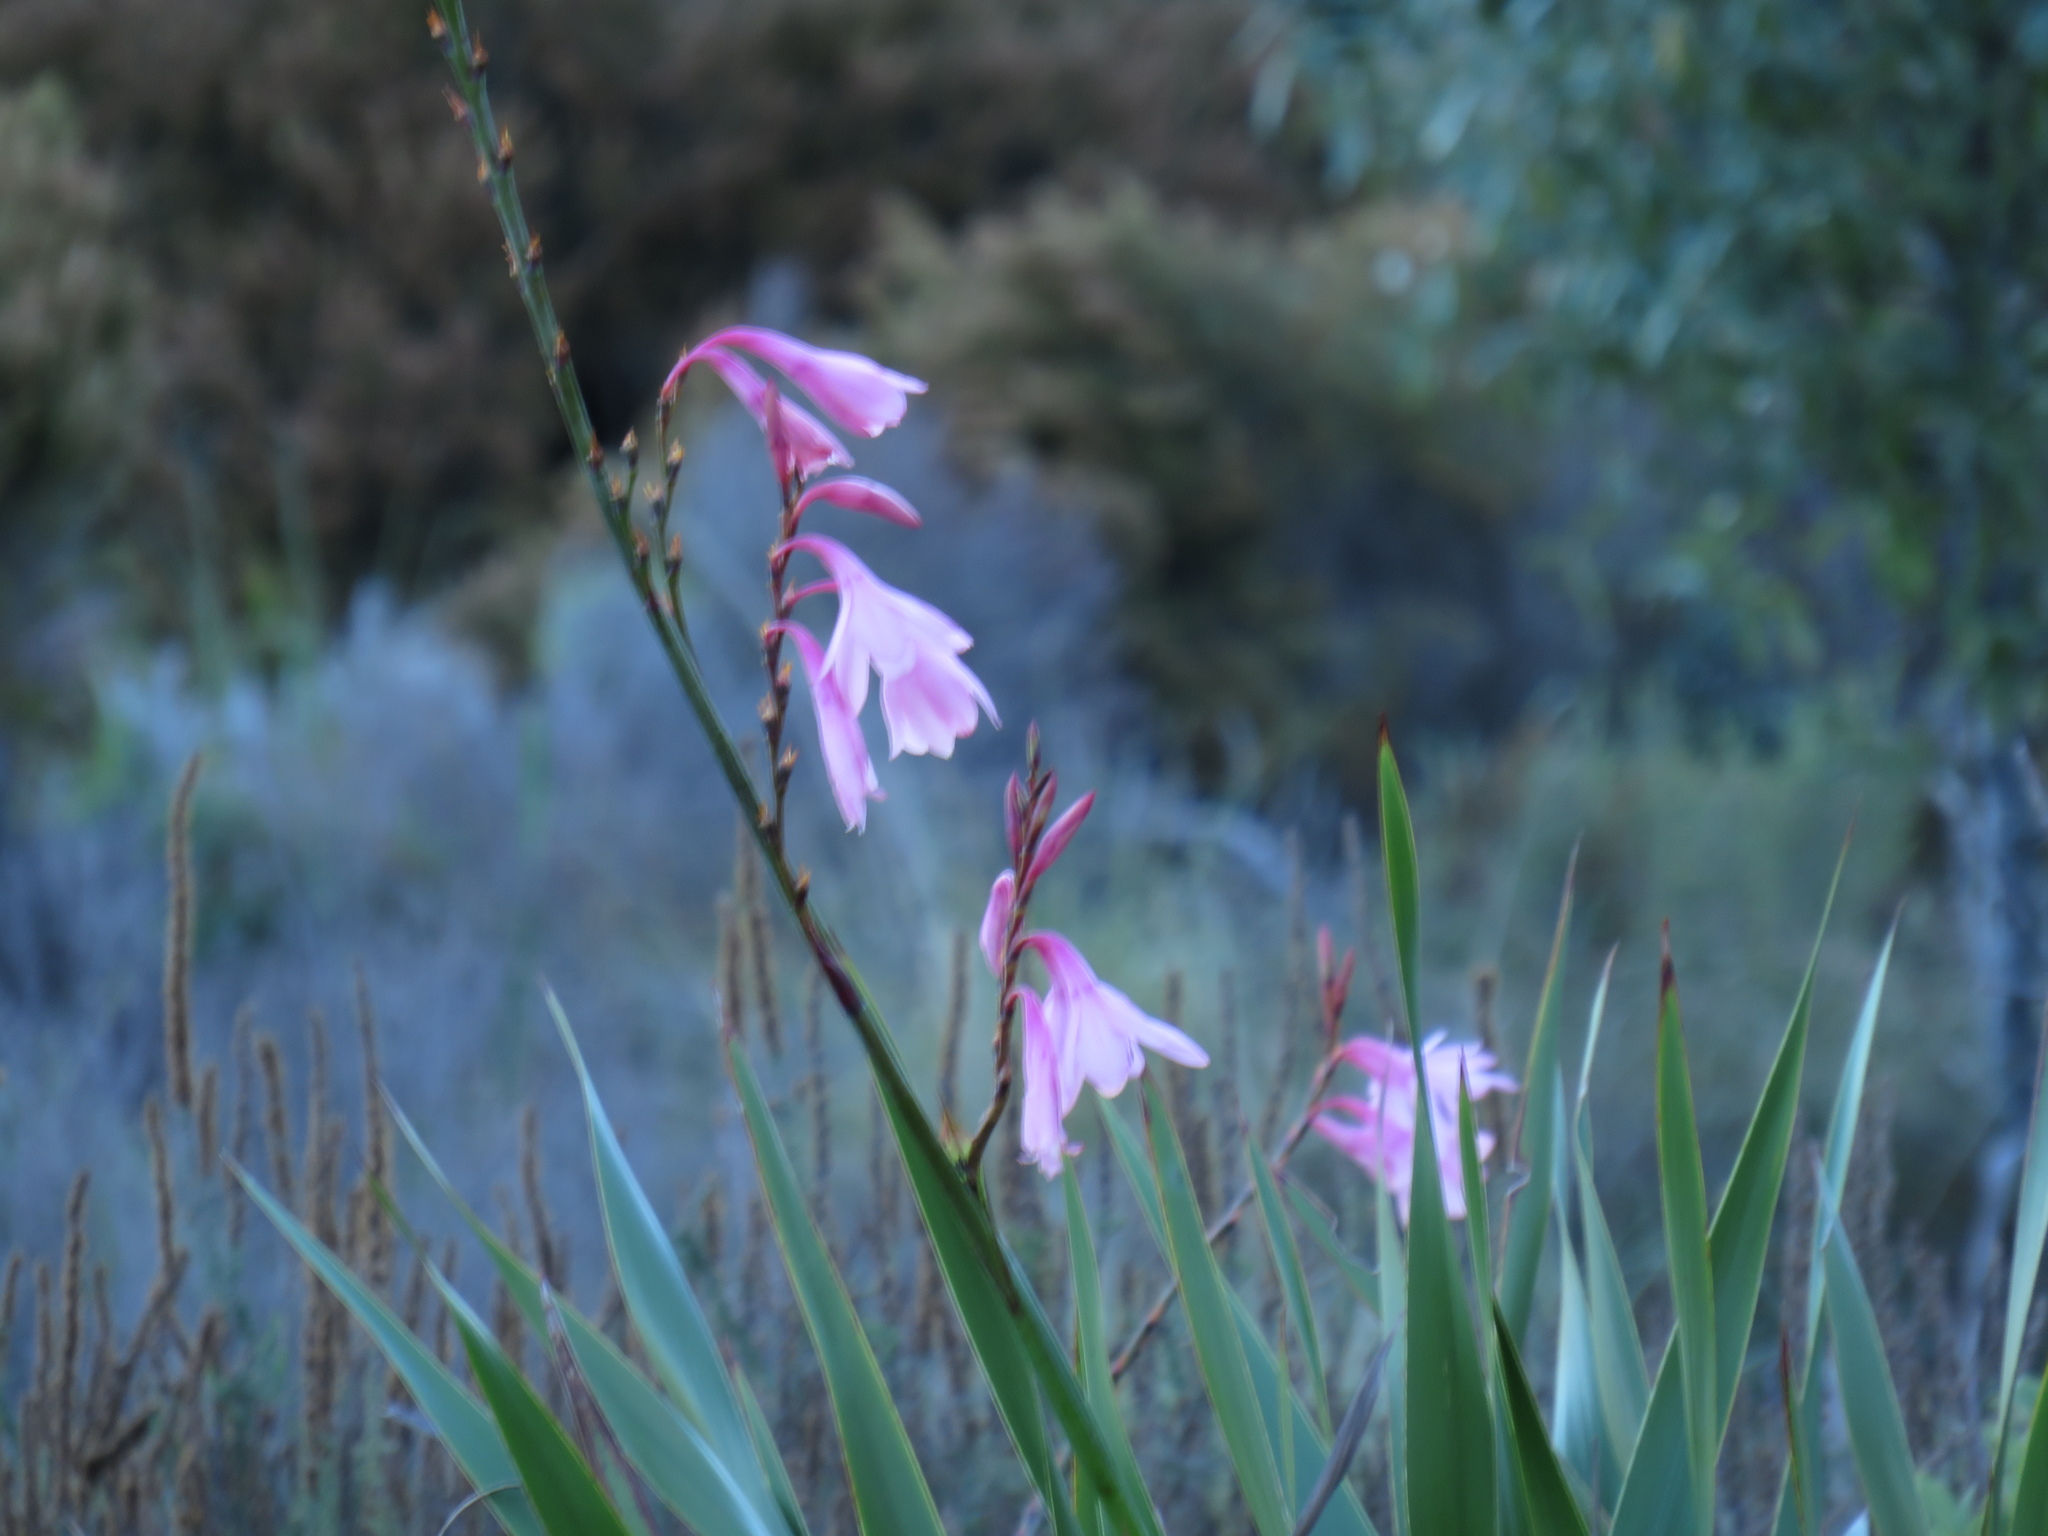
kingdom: Plantae
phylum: Tracheophyta
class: Liliopsida
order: Asparagales
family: Iridaceae
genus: Watsonia
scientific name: Watsonia borbonica
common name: Bugle-lily
